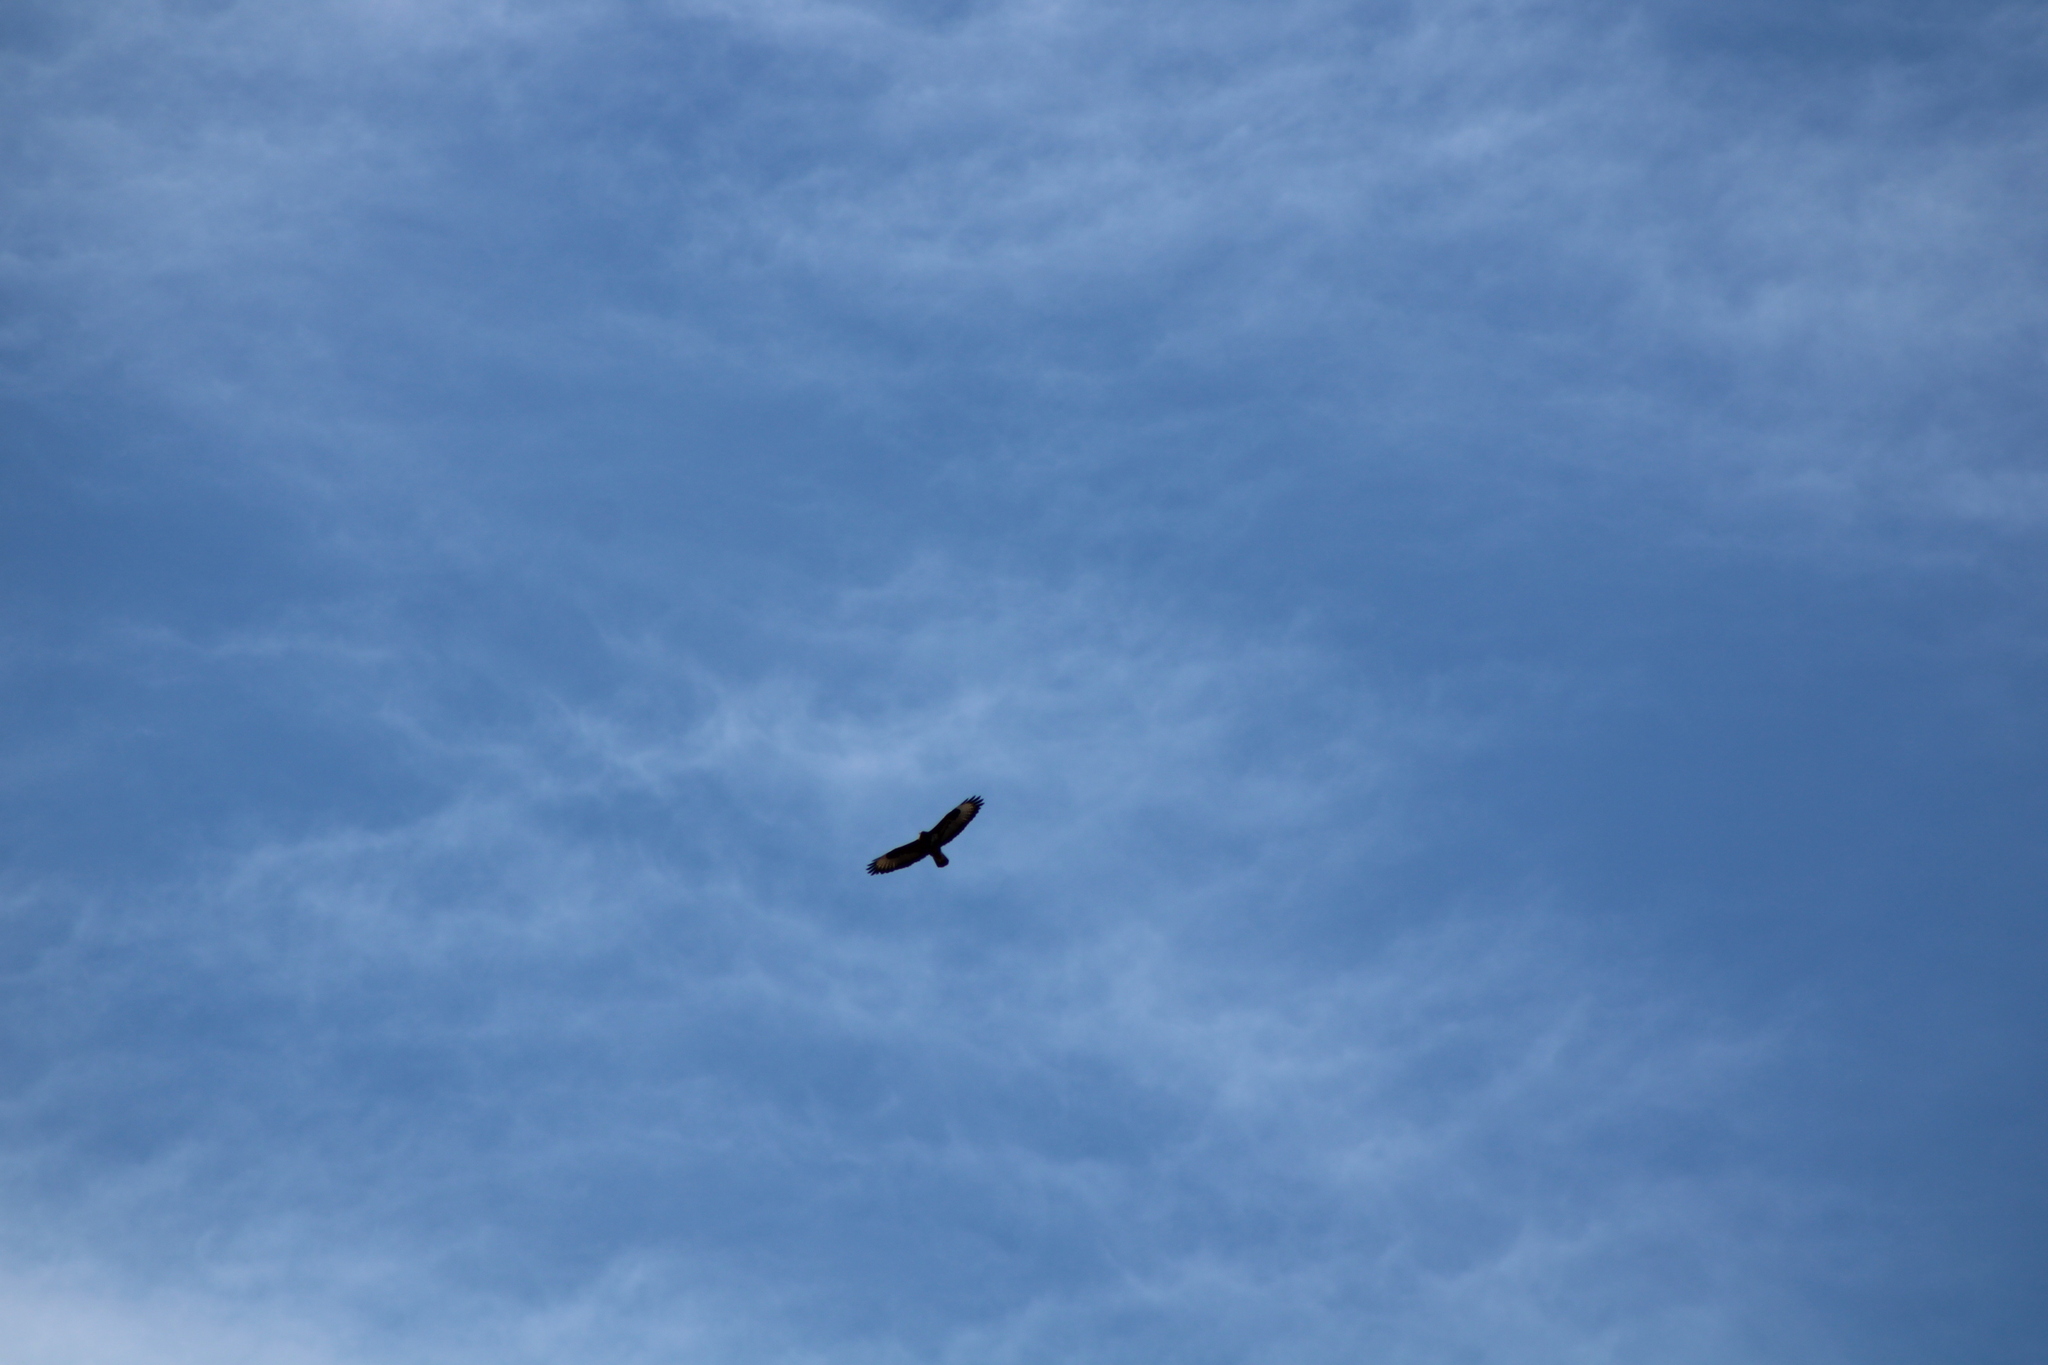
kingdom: Animalia
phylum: Chordata
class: Aves
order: Accipitriformes
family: Accipitridae
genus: Buteo
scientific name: Buteo buteo
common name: Common buzzard
